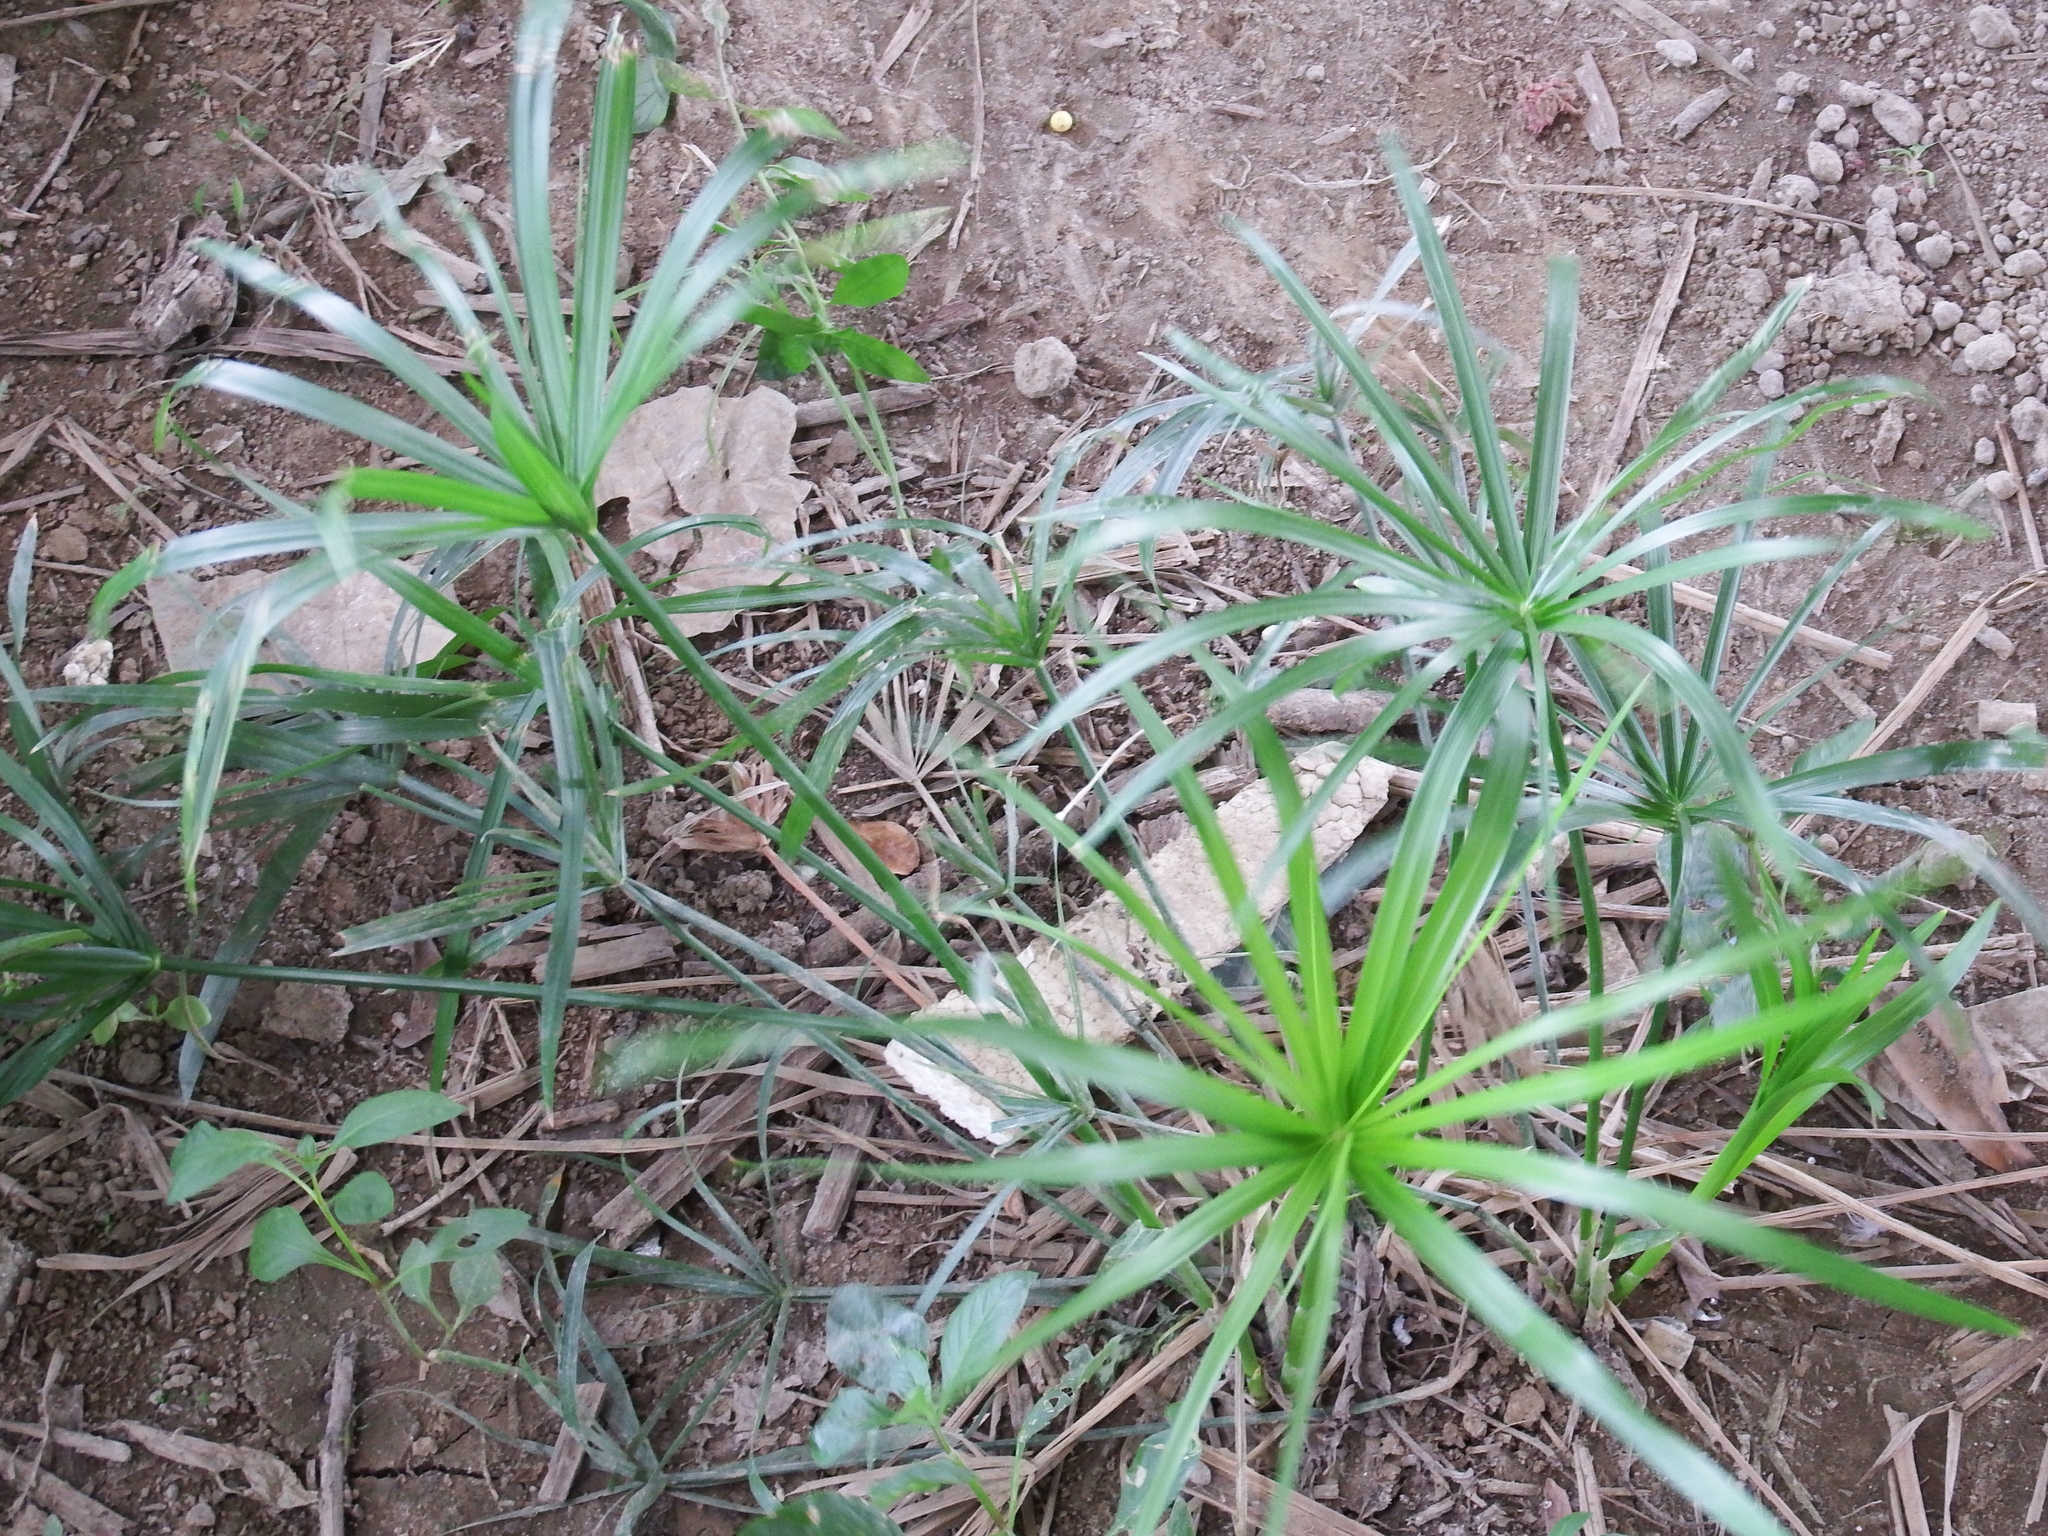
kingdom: Plantae
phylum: Tracheophyta
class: Liliopsida
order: Poales
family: Cyperaceae
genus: Cyperus
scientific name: Cyperus alternifolius
